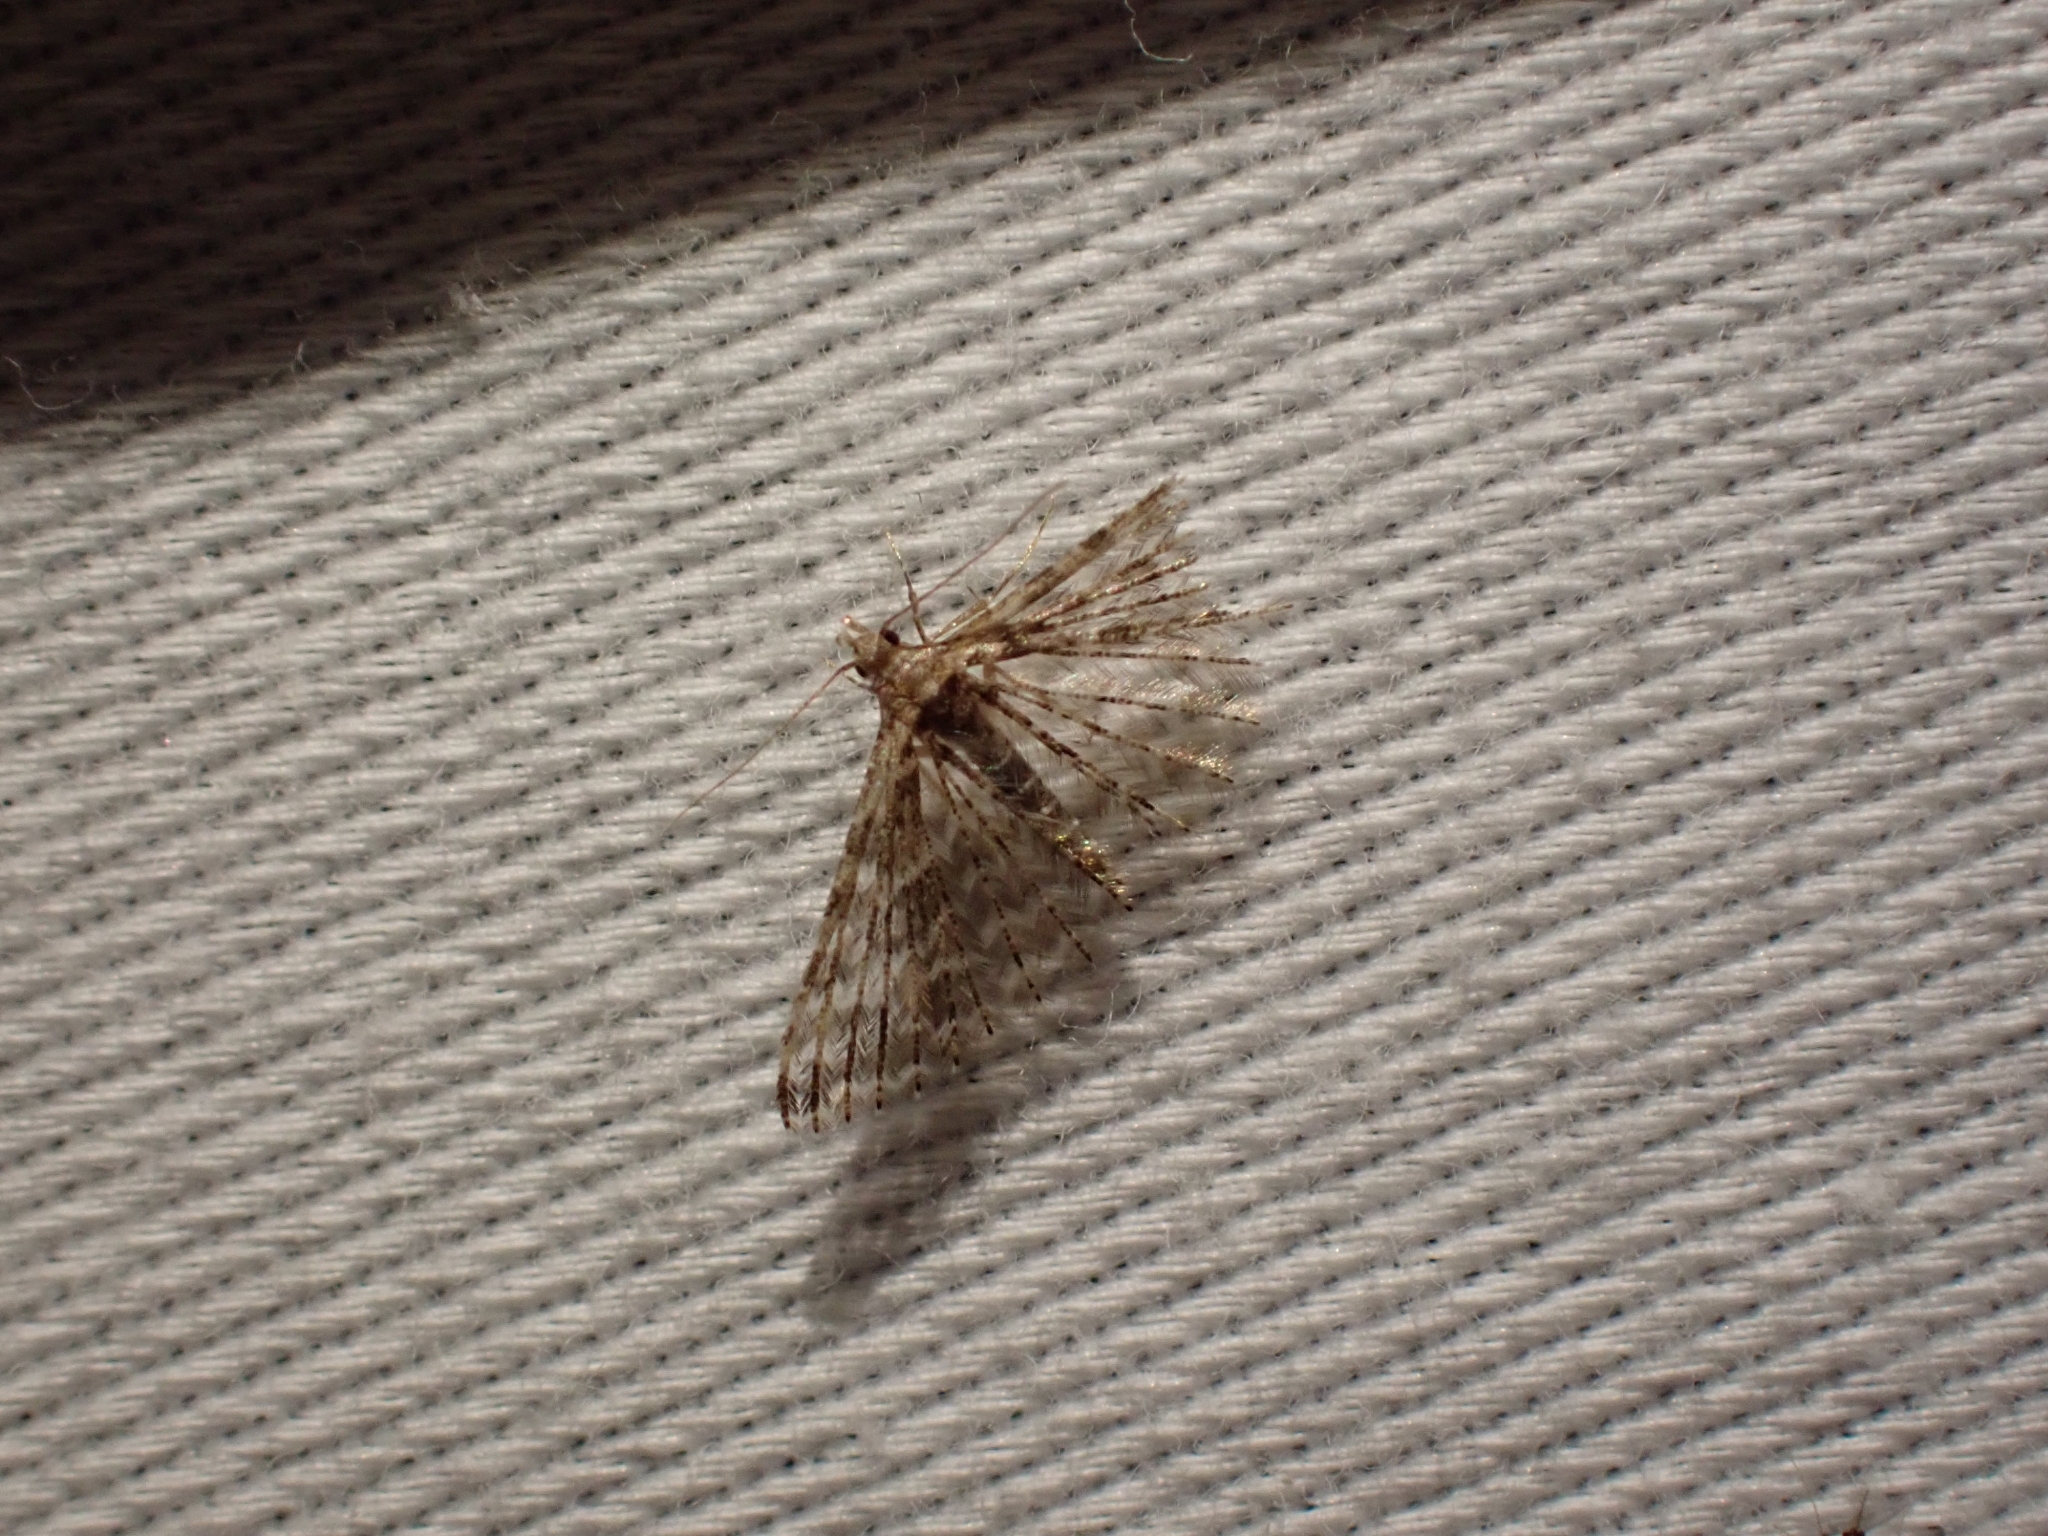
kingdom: Animalia
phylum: Arthropoda
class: Insecta
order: Lepidoptera
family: Alucitidae
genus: Alucita
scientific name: Alucita montana
